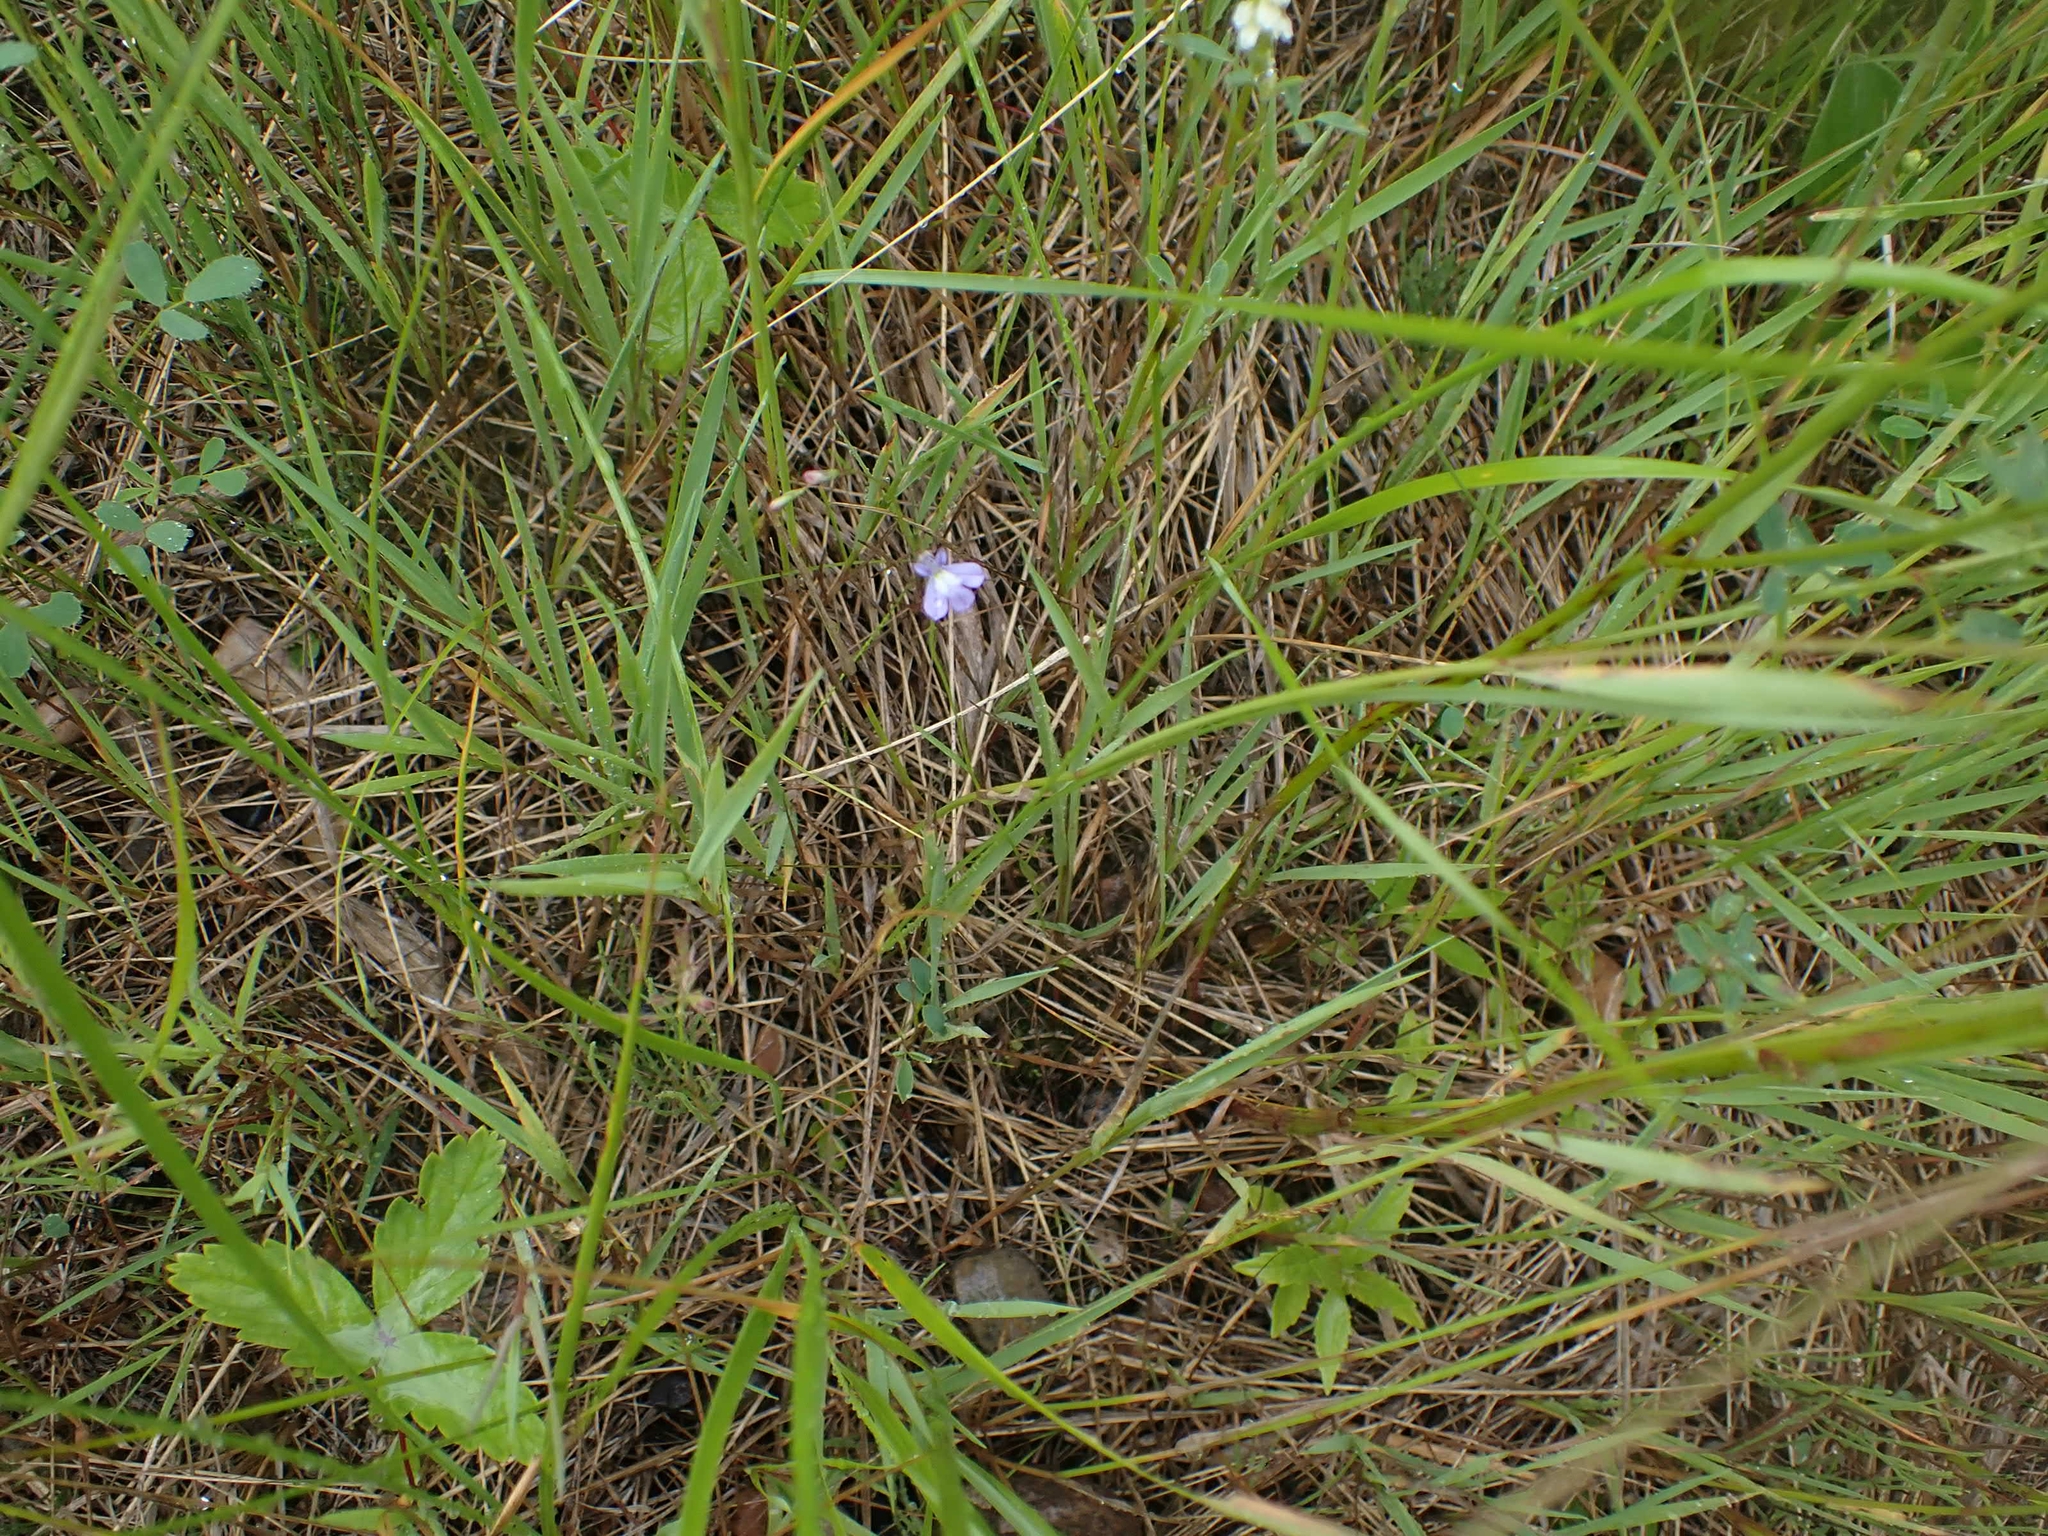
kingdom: Plantae
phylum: Tracheophyta
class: Magnoliopsida
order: Asterales
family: Campanulaceae
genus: Lobelia
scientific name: Lobelia kalmii
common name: Kalm's lobelia
